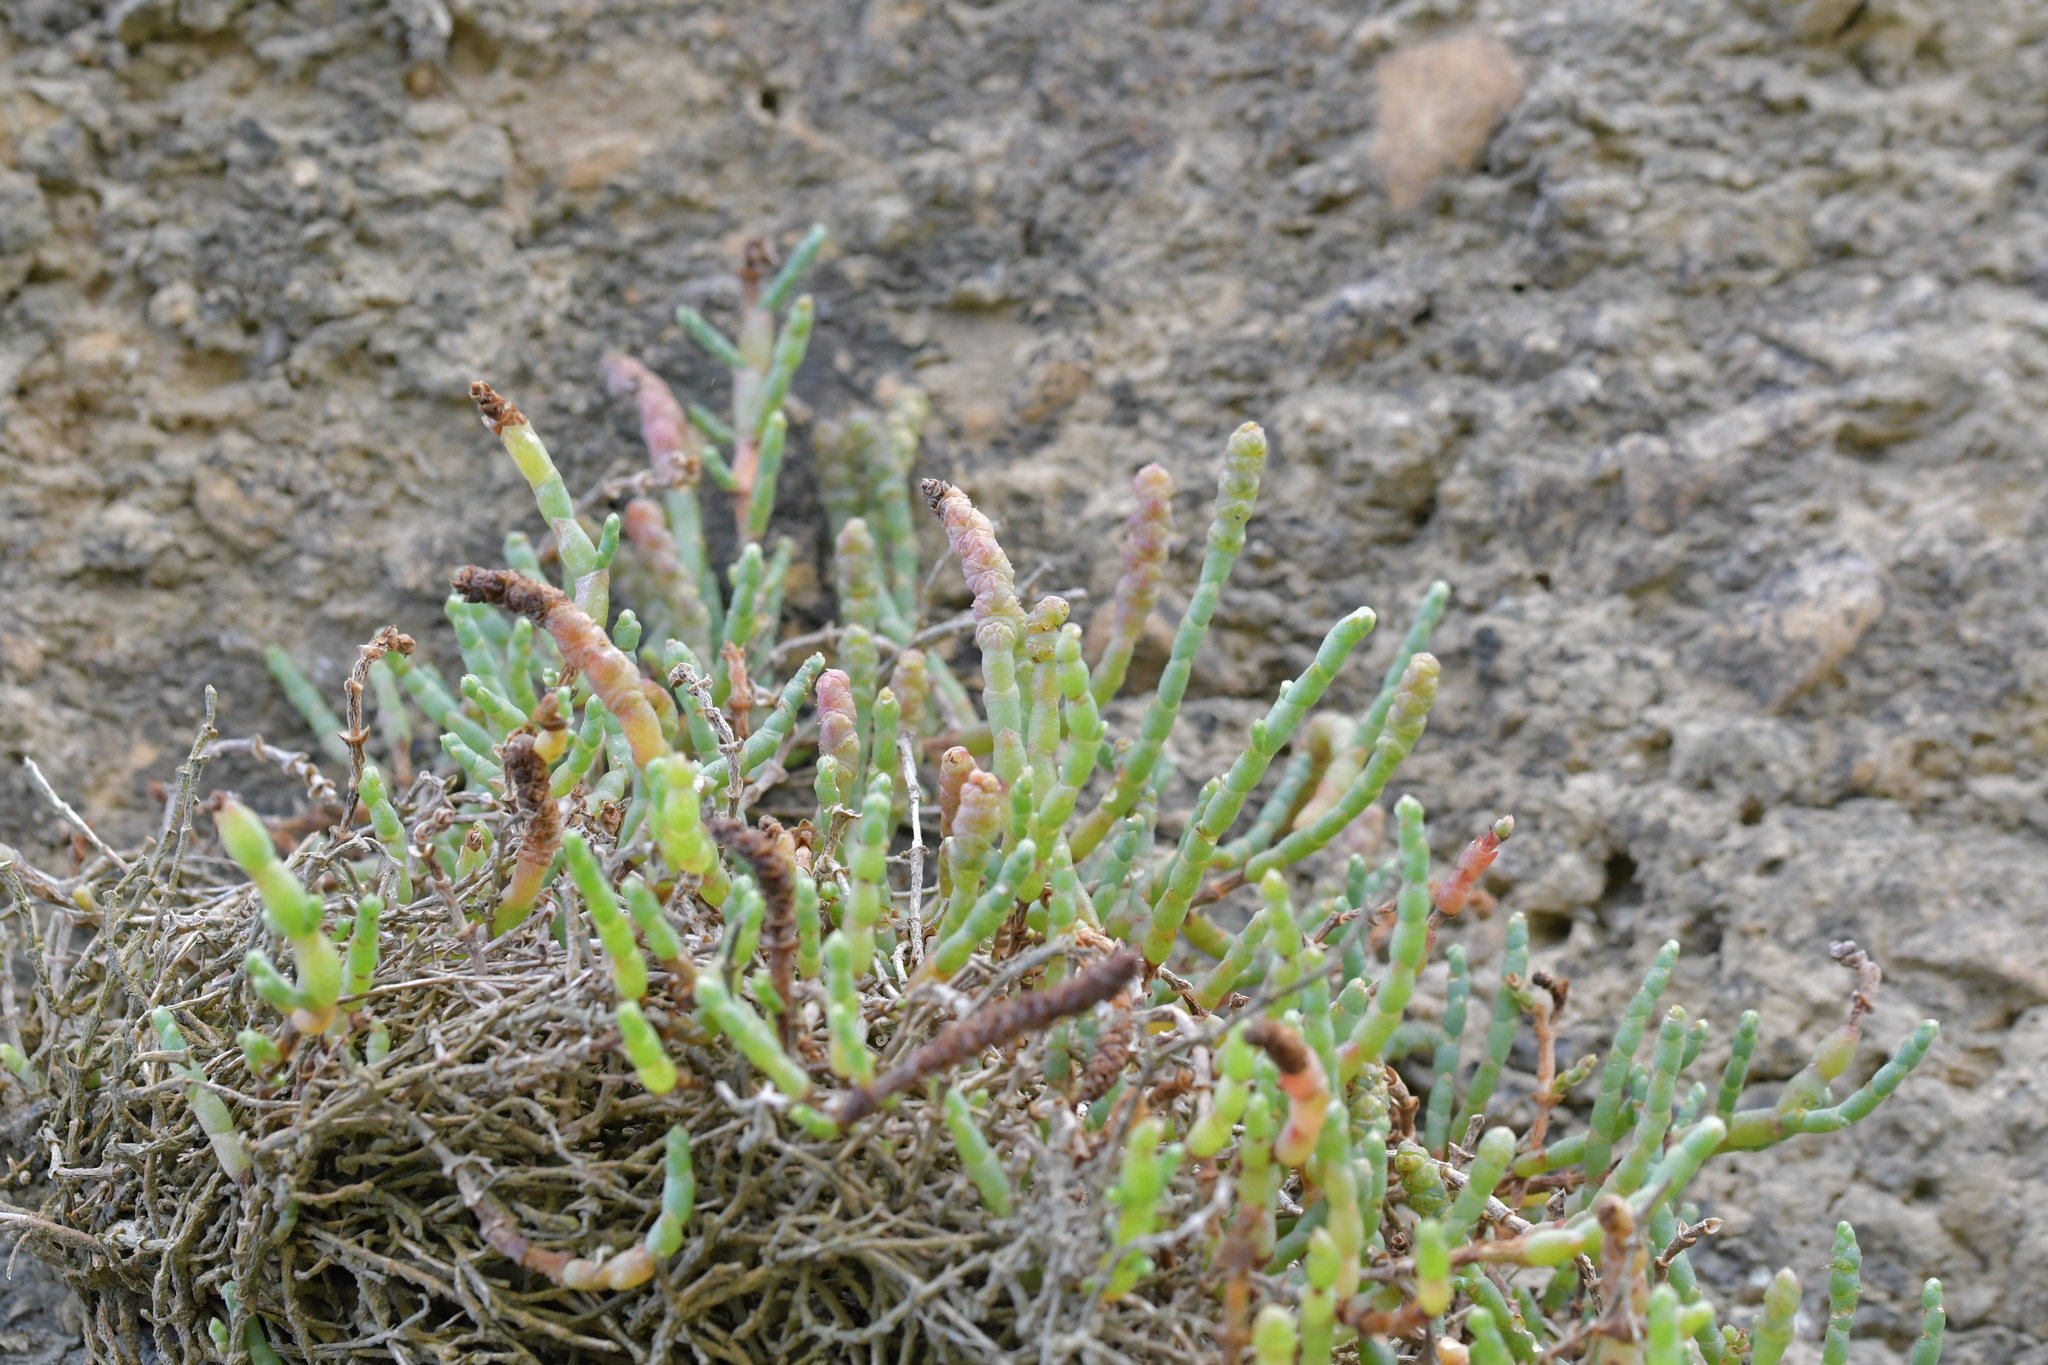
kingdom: Plantae
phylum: Tracheophyta
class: Magnoliopsida
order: Caryophyllales
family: Amaranthaceae
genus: Salicornia
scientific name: Salicornia quinqueflora
